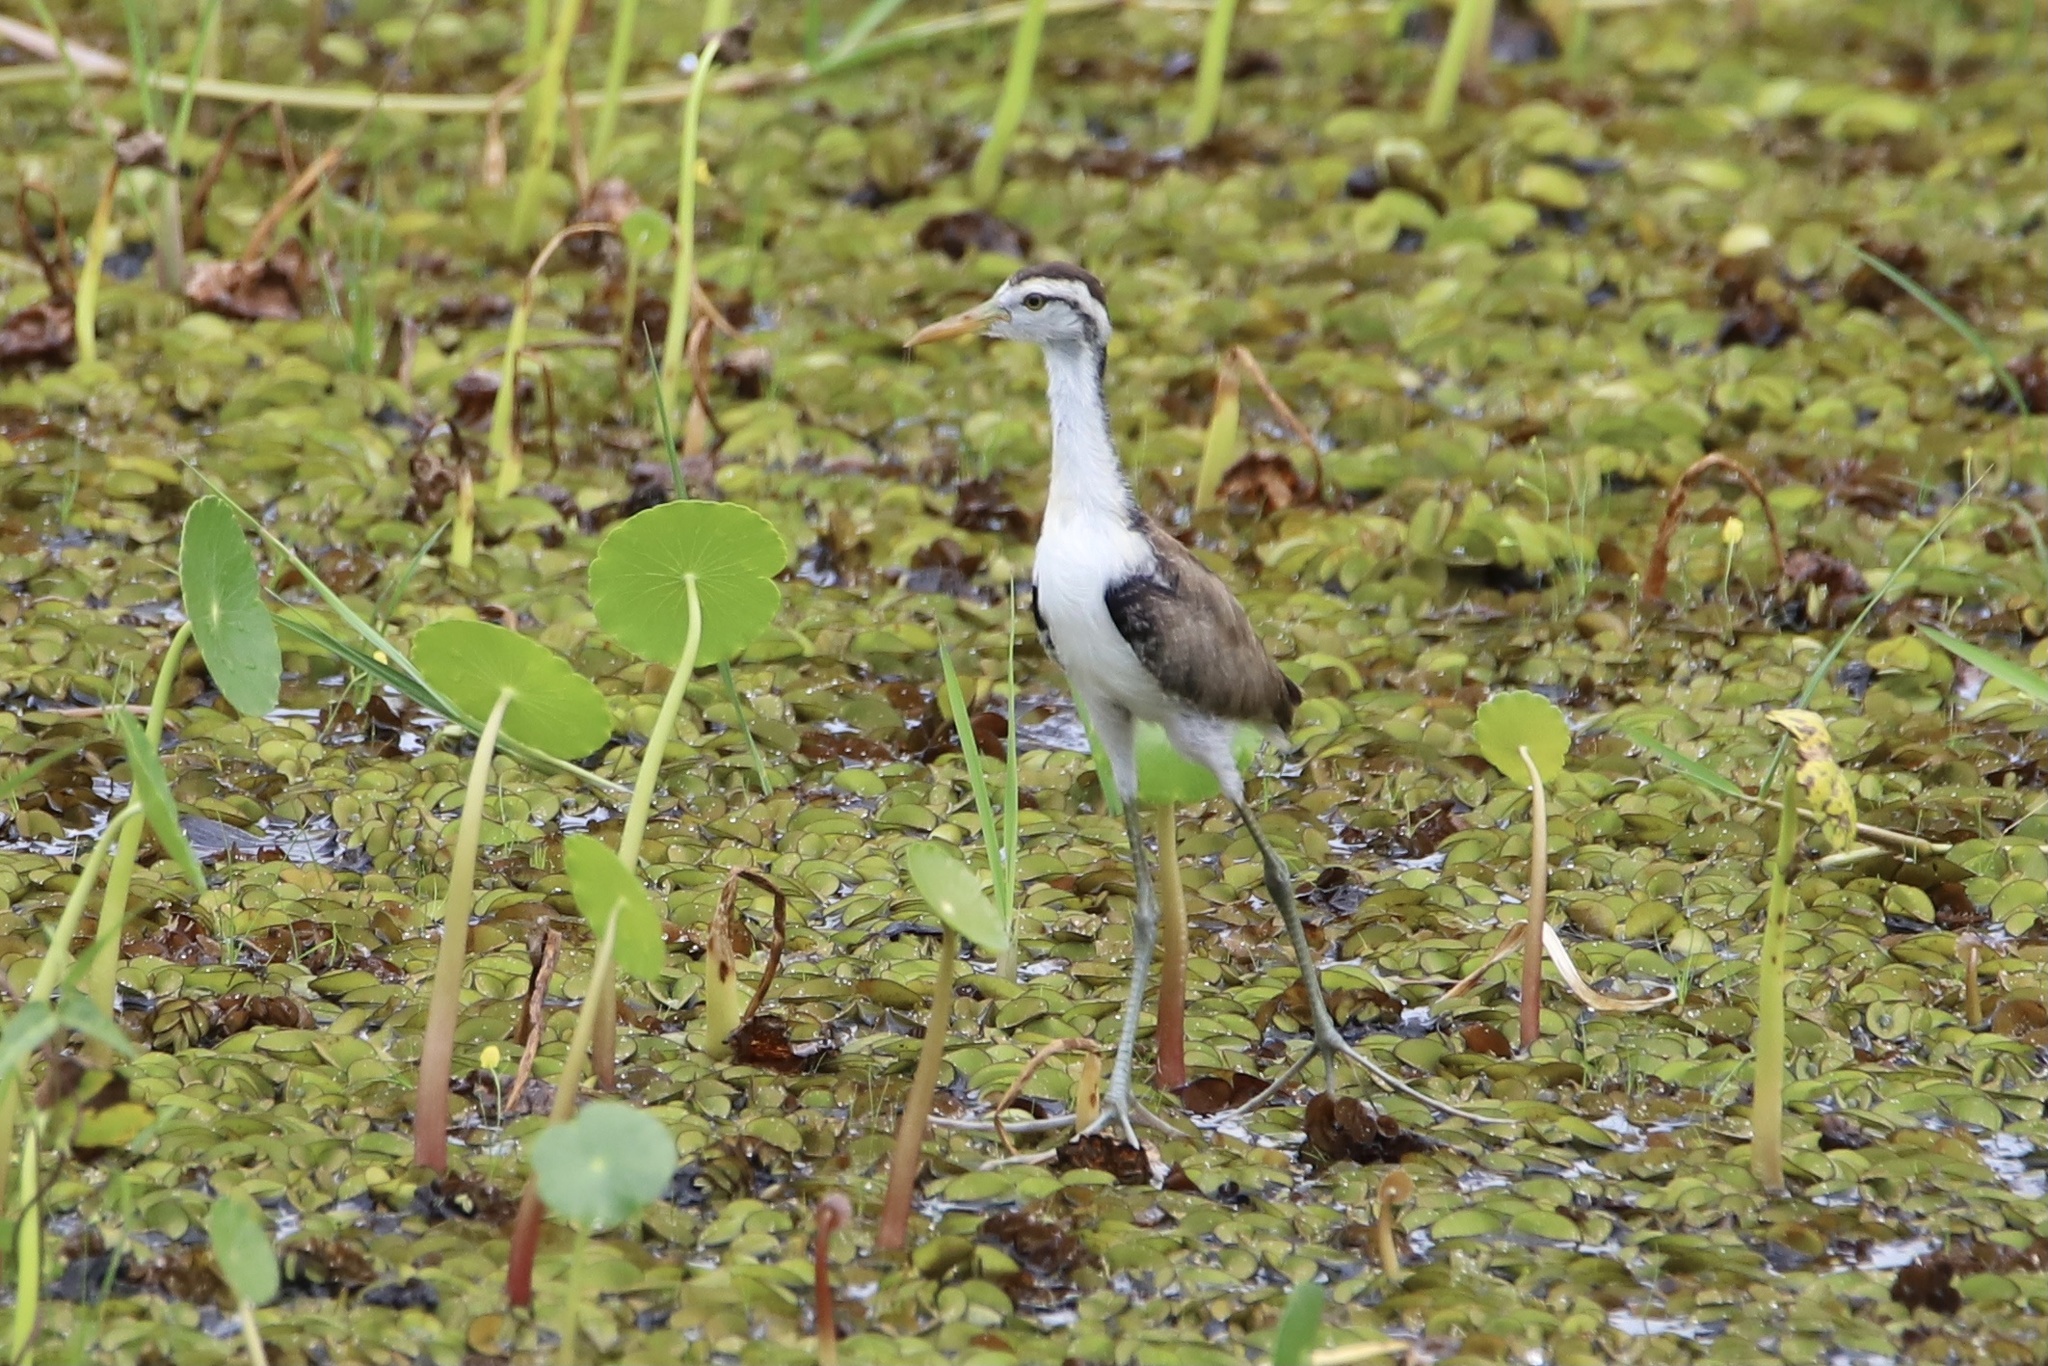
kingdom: Animalia
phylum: Chordata
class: Aves
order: Charadriiformes
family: Jacanidae
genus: Jacana
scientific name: Jacana jacana
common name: Wattled jacana
